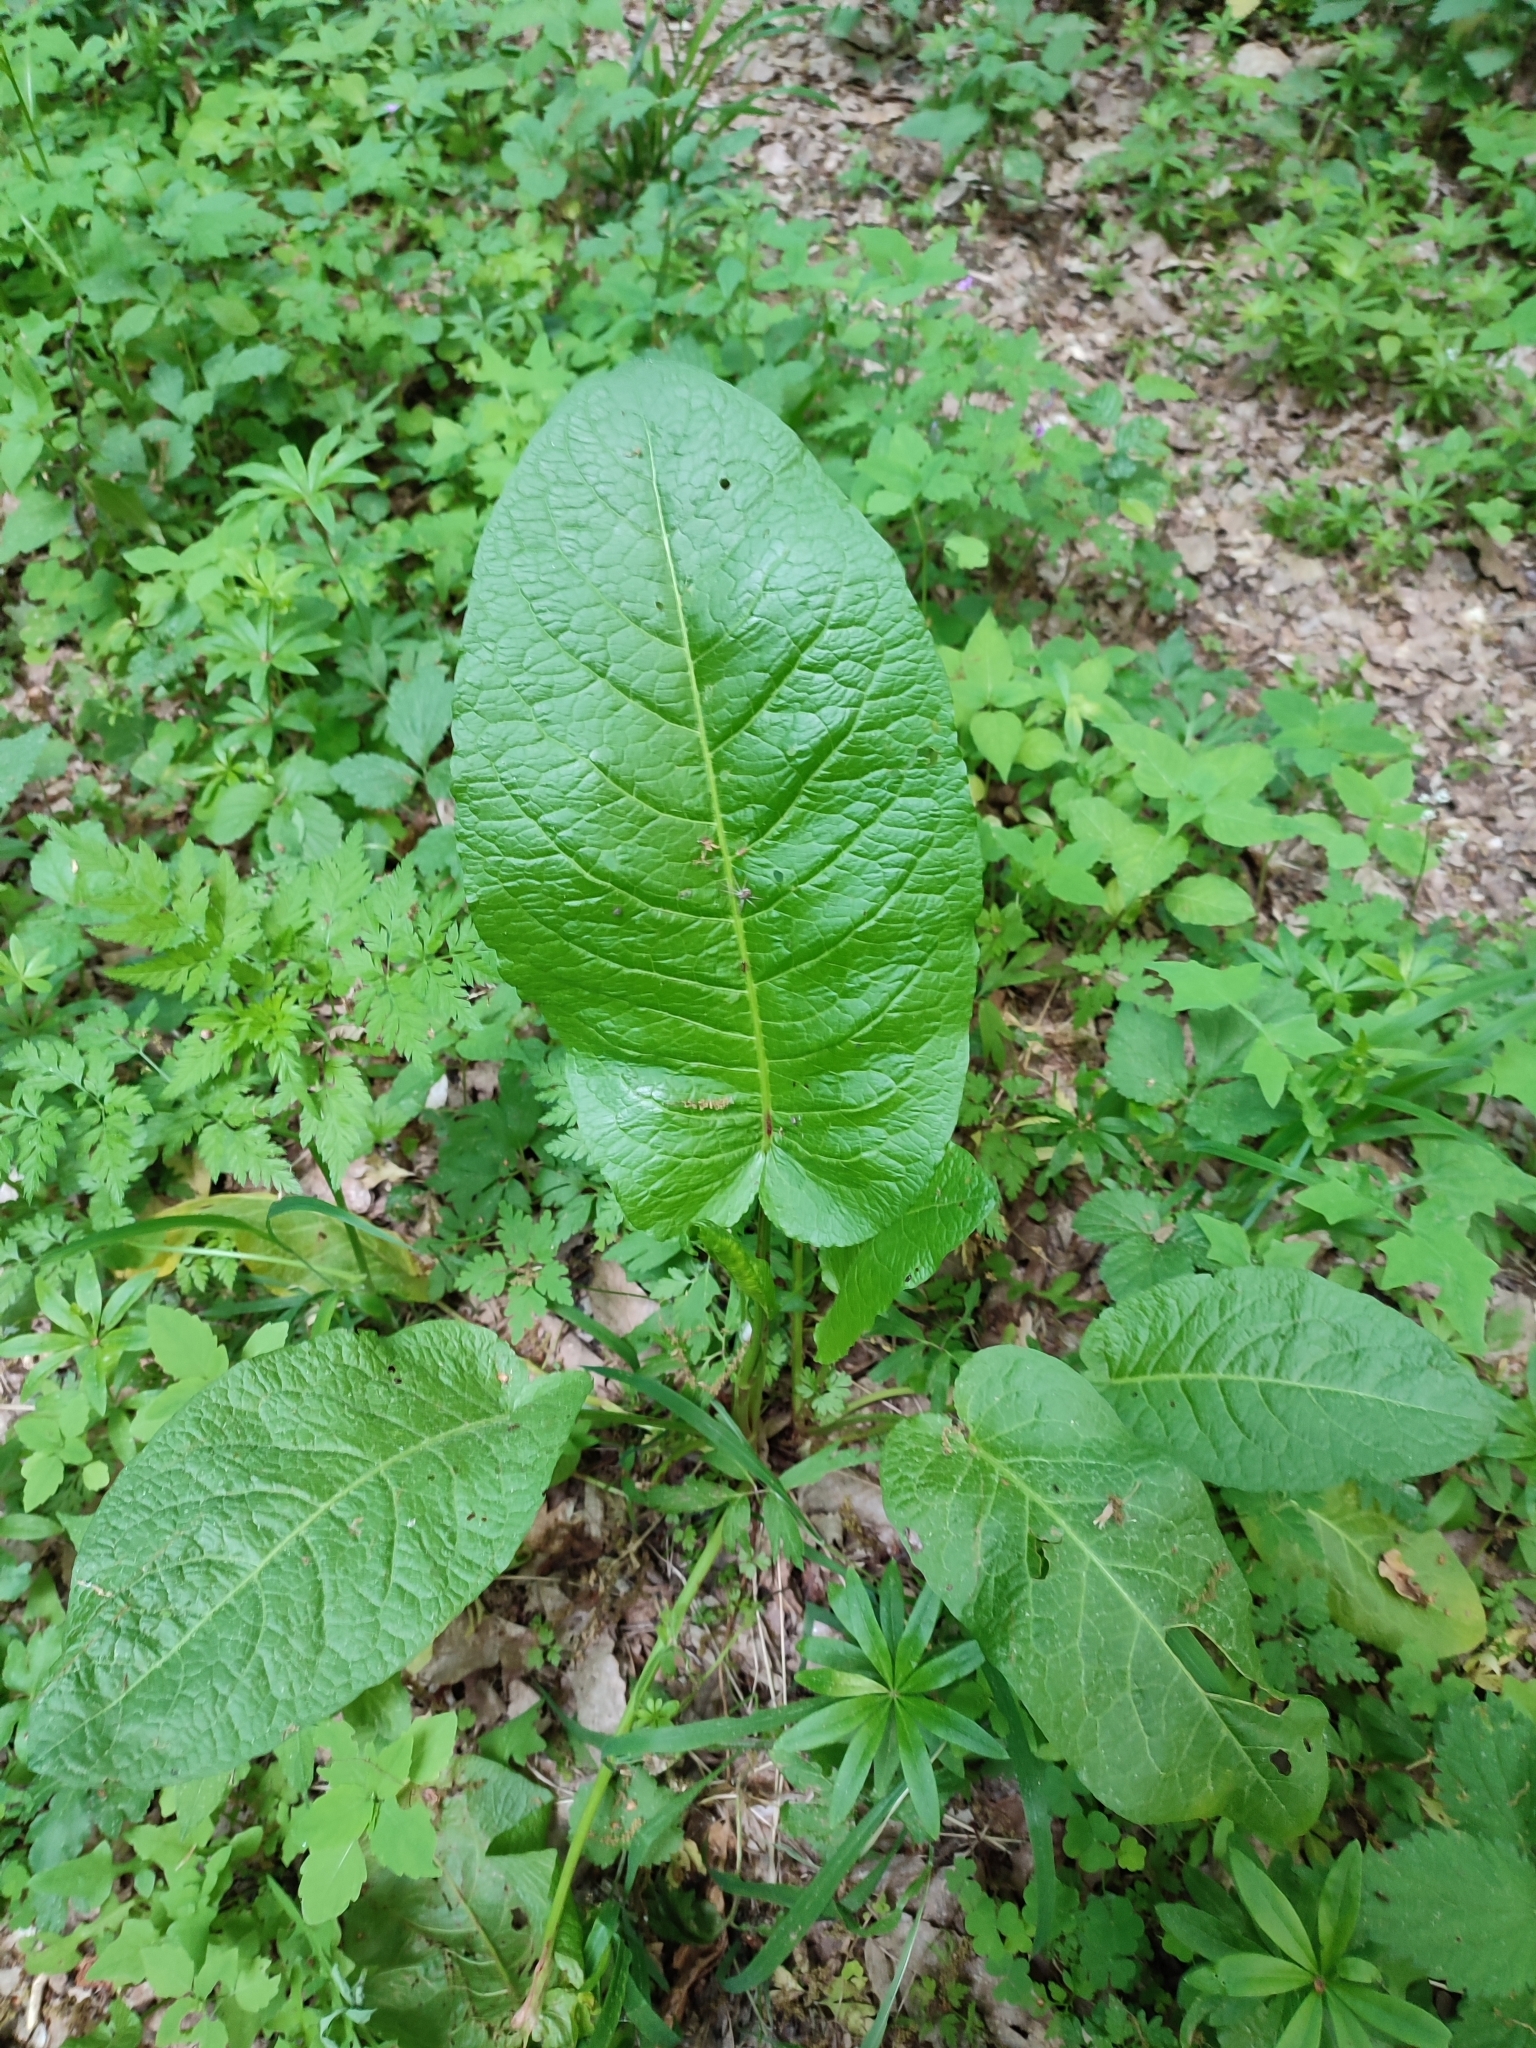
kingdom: Plantae
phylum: Tracheophyta
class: Magnoliopsida
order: Caryophyllales
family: Polygonaceae
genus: Rumex
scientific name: Rumex obtusifolius
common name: Bitter dock
